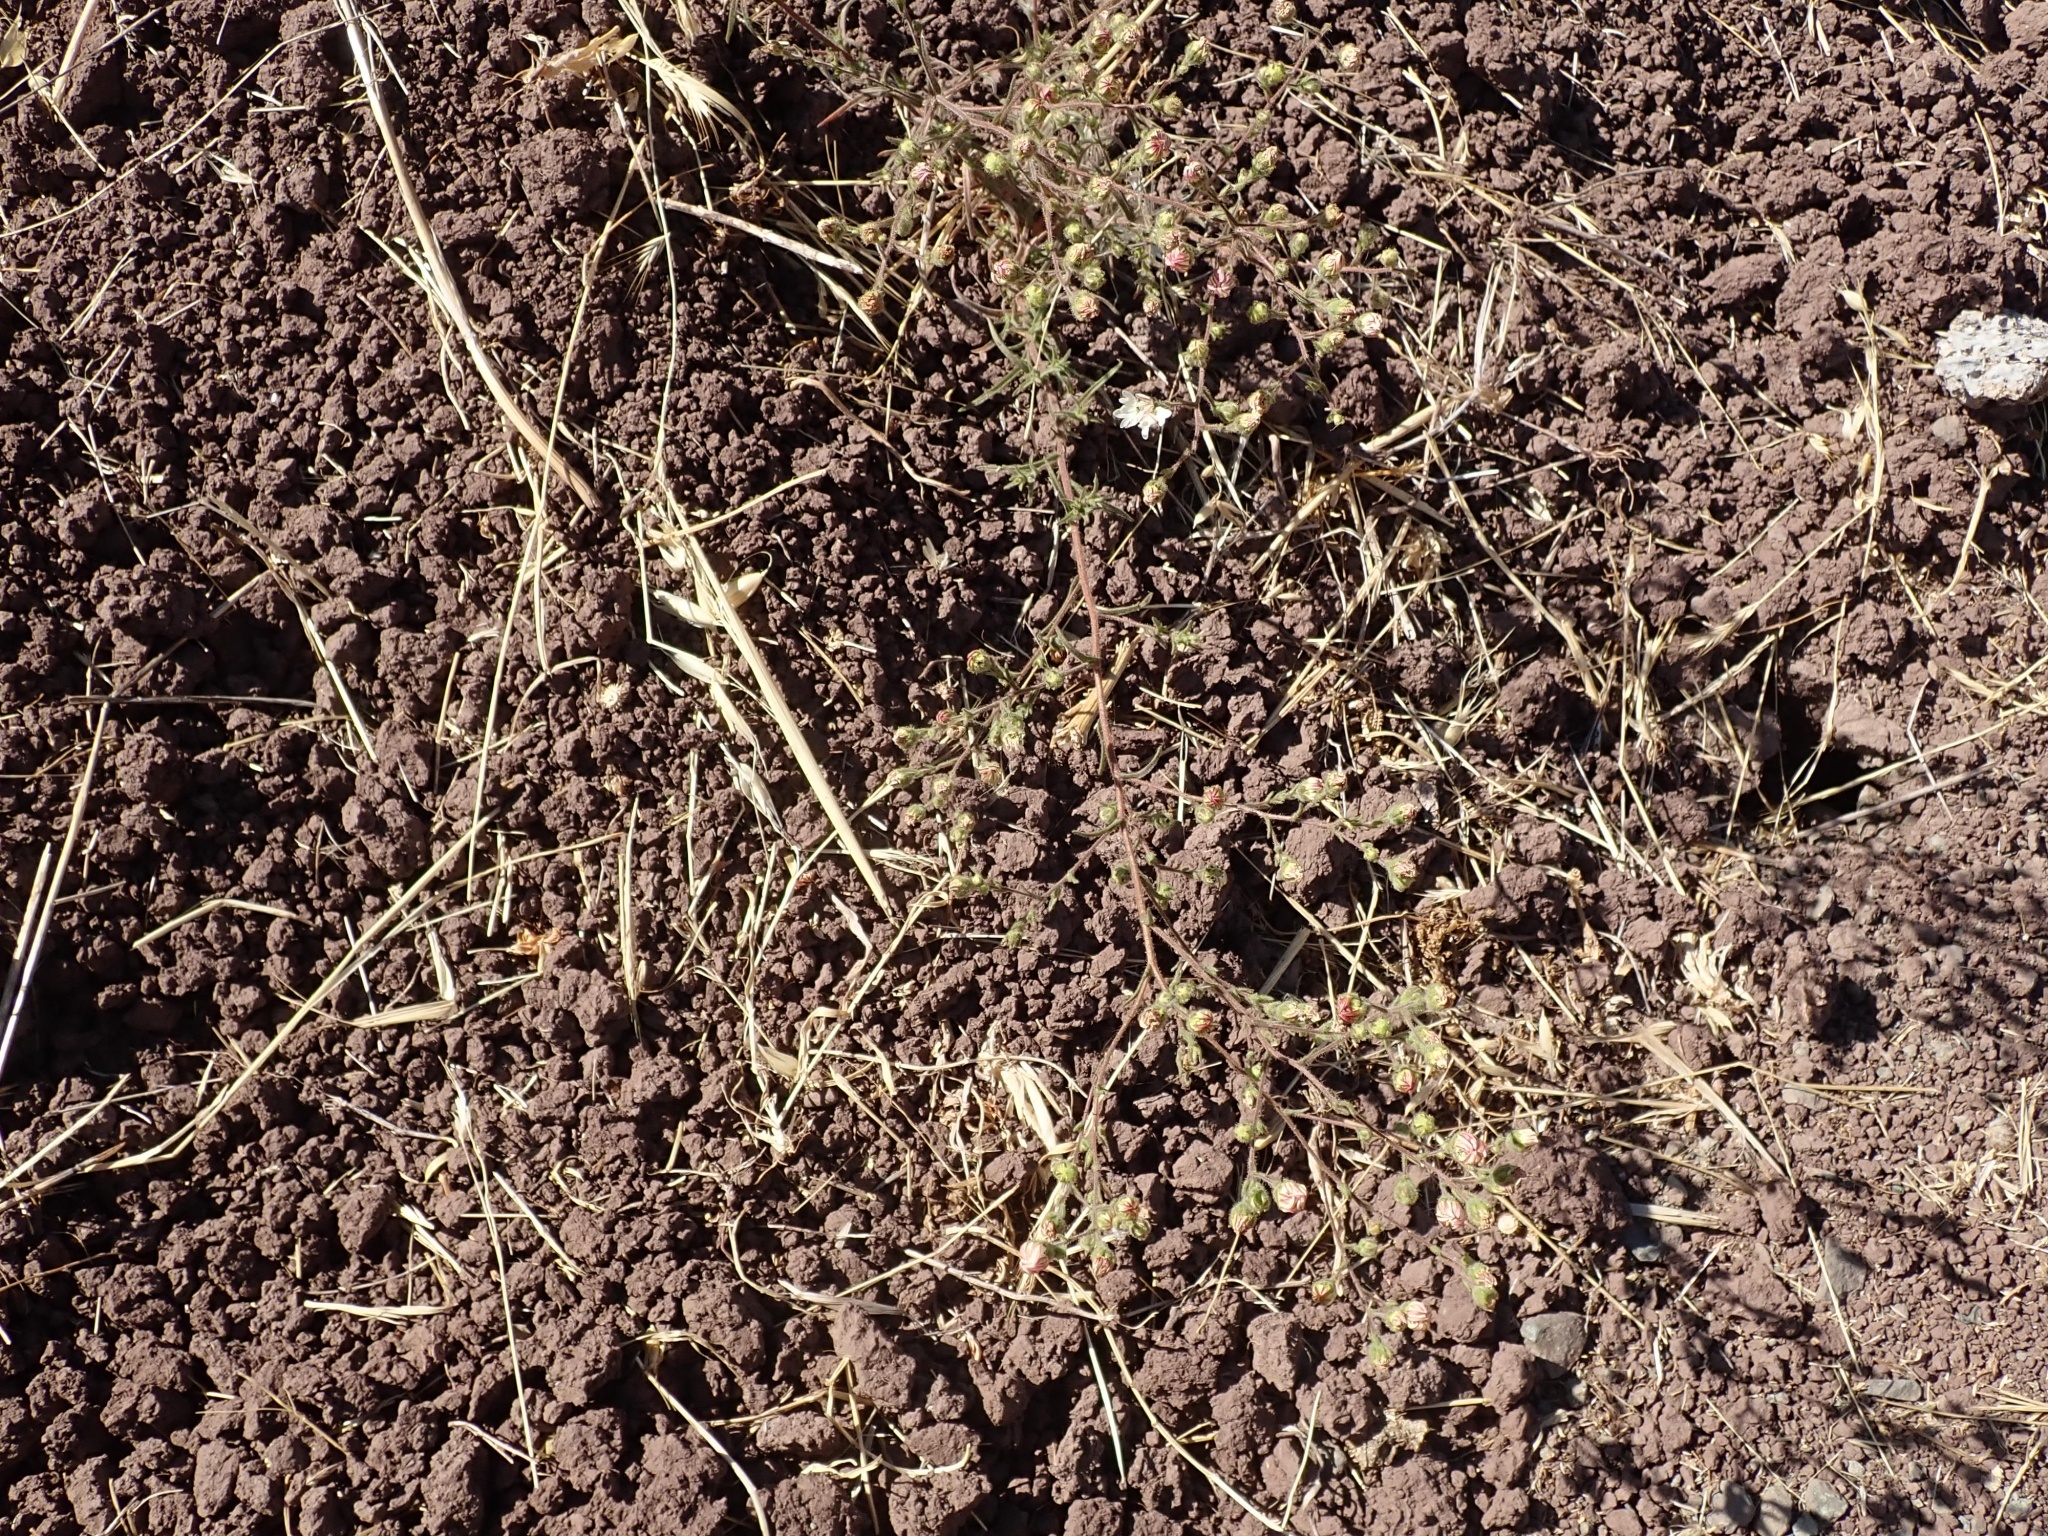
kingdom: Plantae
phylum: Tracheophyta
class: Magnoliopsida
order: Asterales
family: Asteraceae
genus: Hemizonia
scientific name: Hemizonia congesta
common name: Hayfield tarweed
